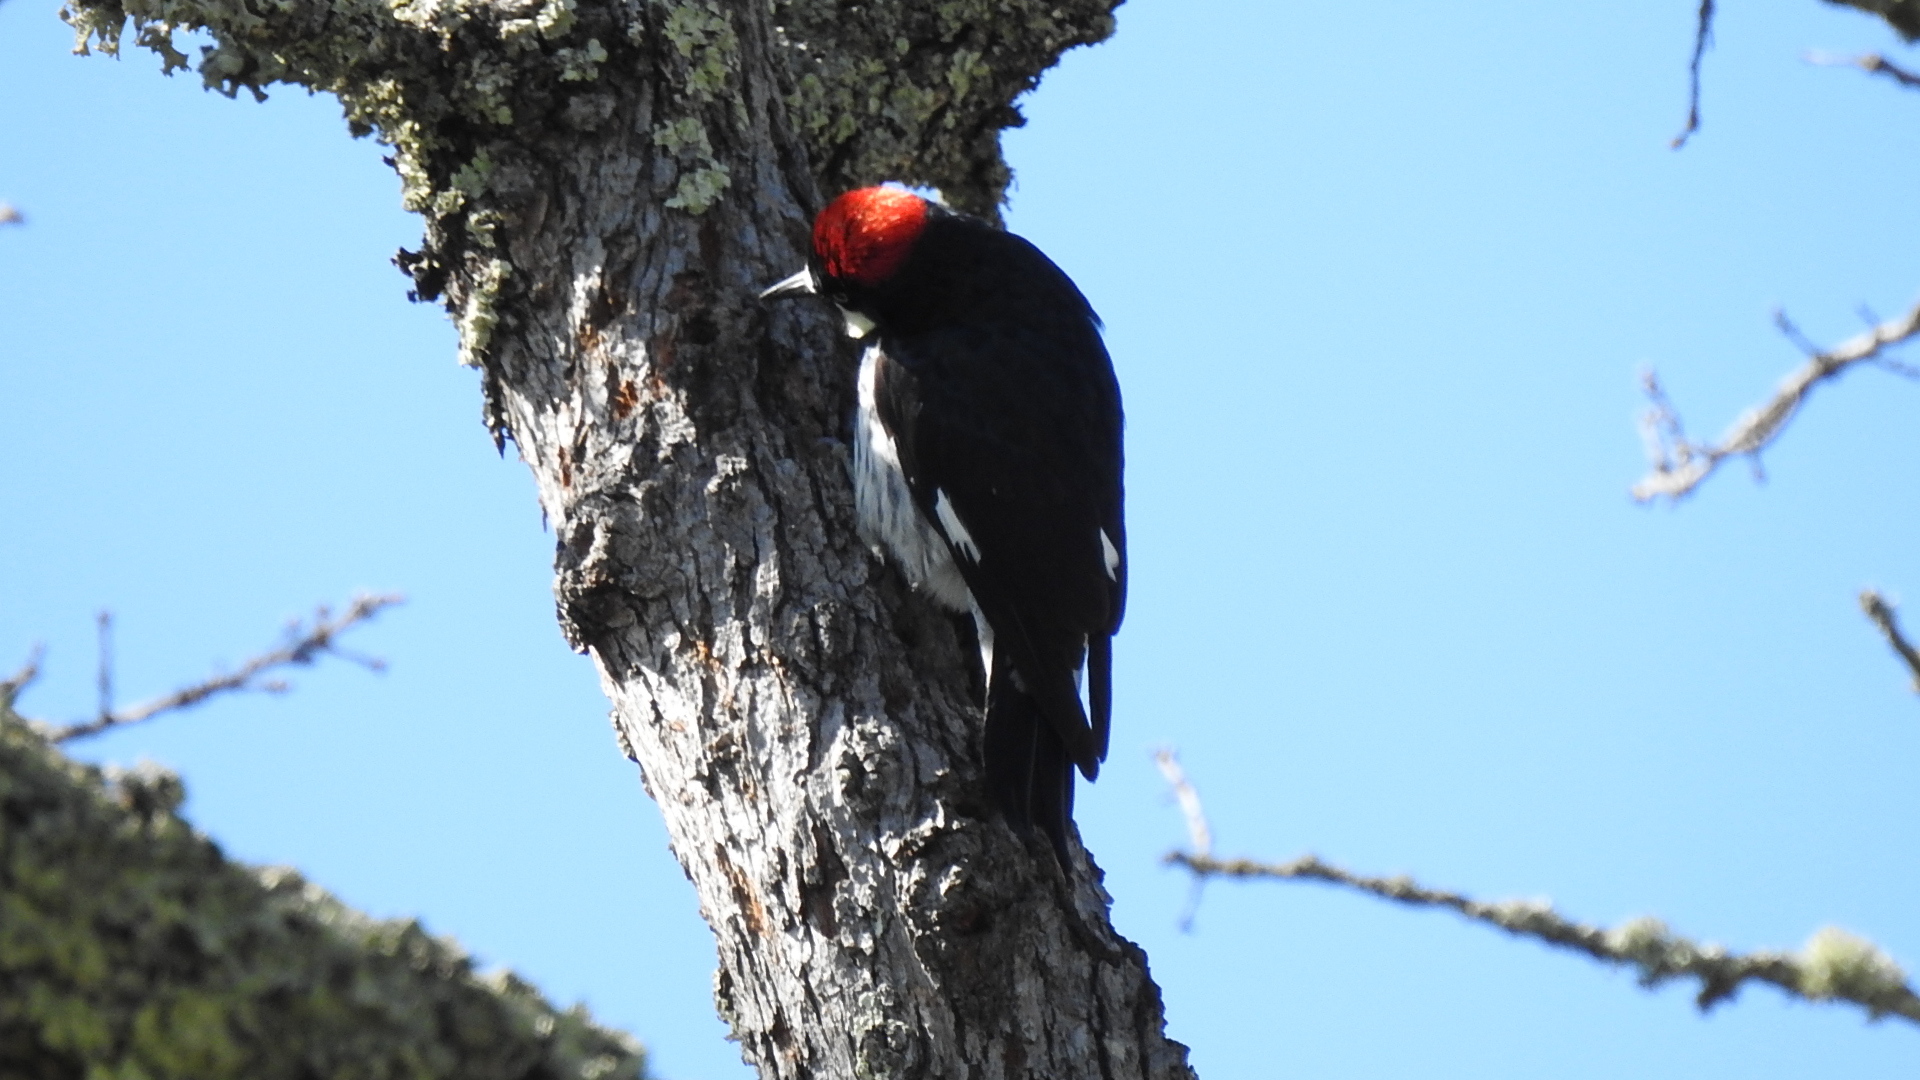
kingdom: Animalia
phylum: Chordata
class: Aves
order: Piciformes
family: Picidae
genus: Melanerpes
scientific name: Melanerpes formicivorus
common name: Acorn woodpecker
